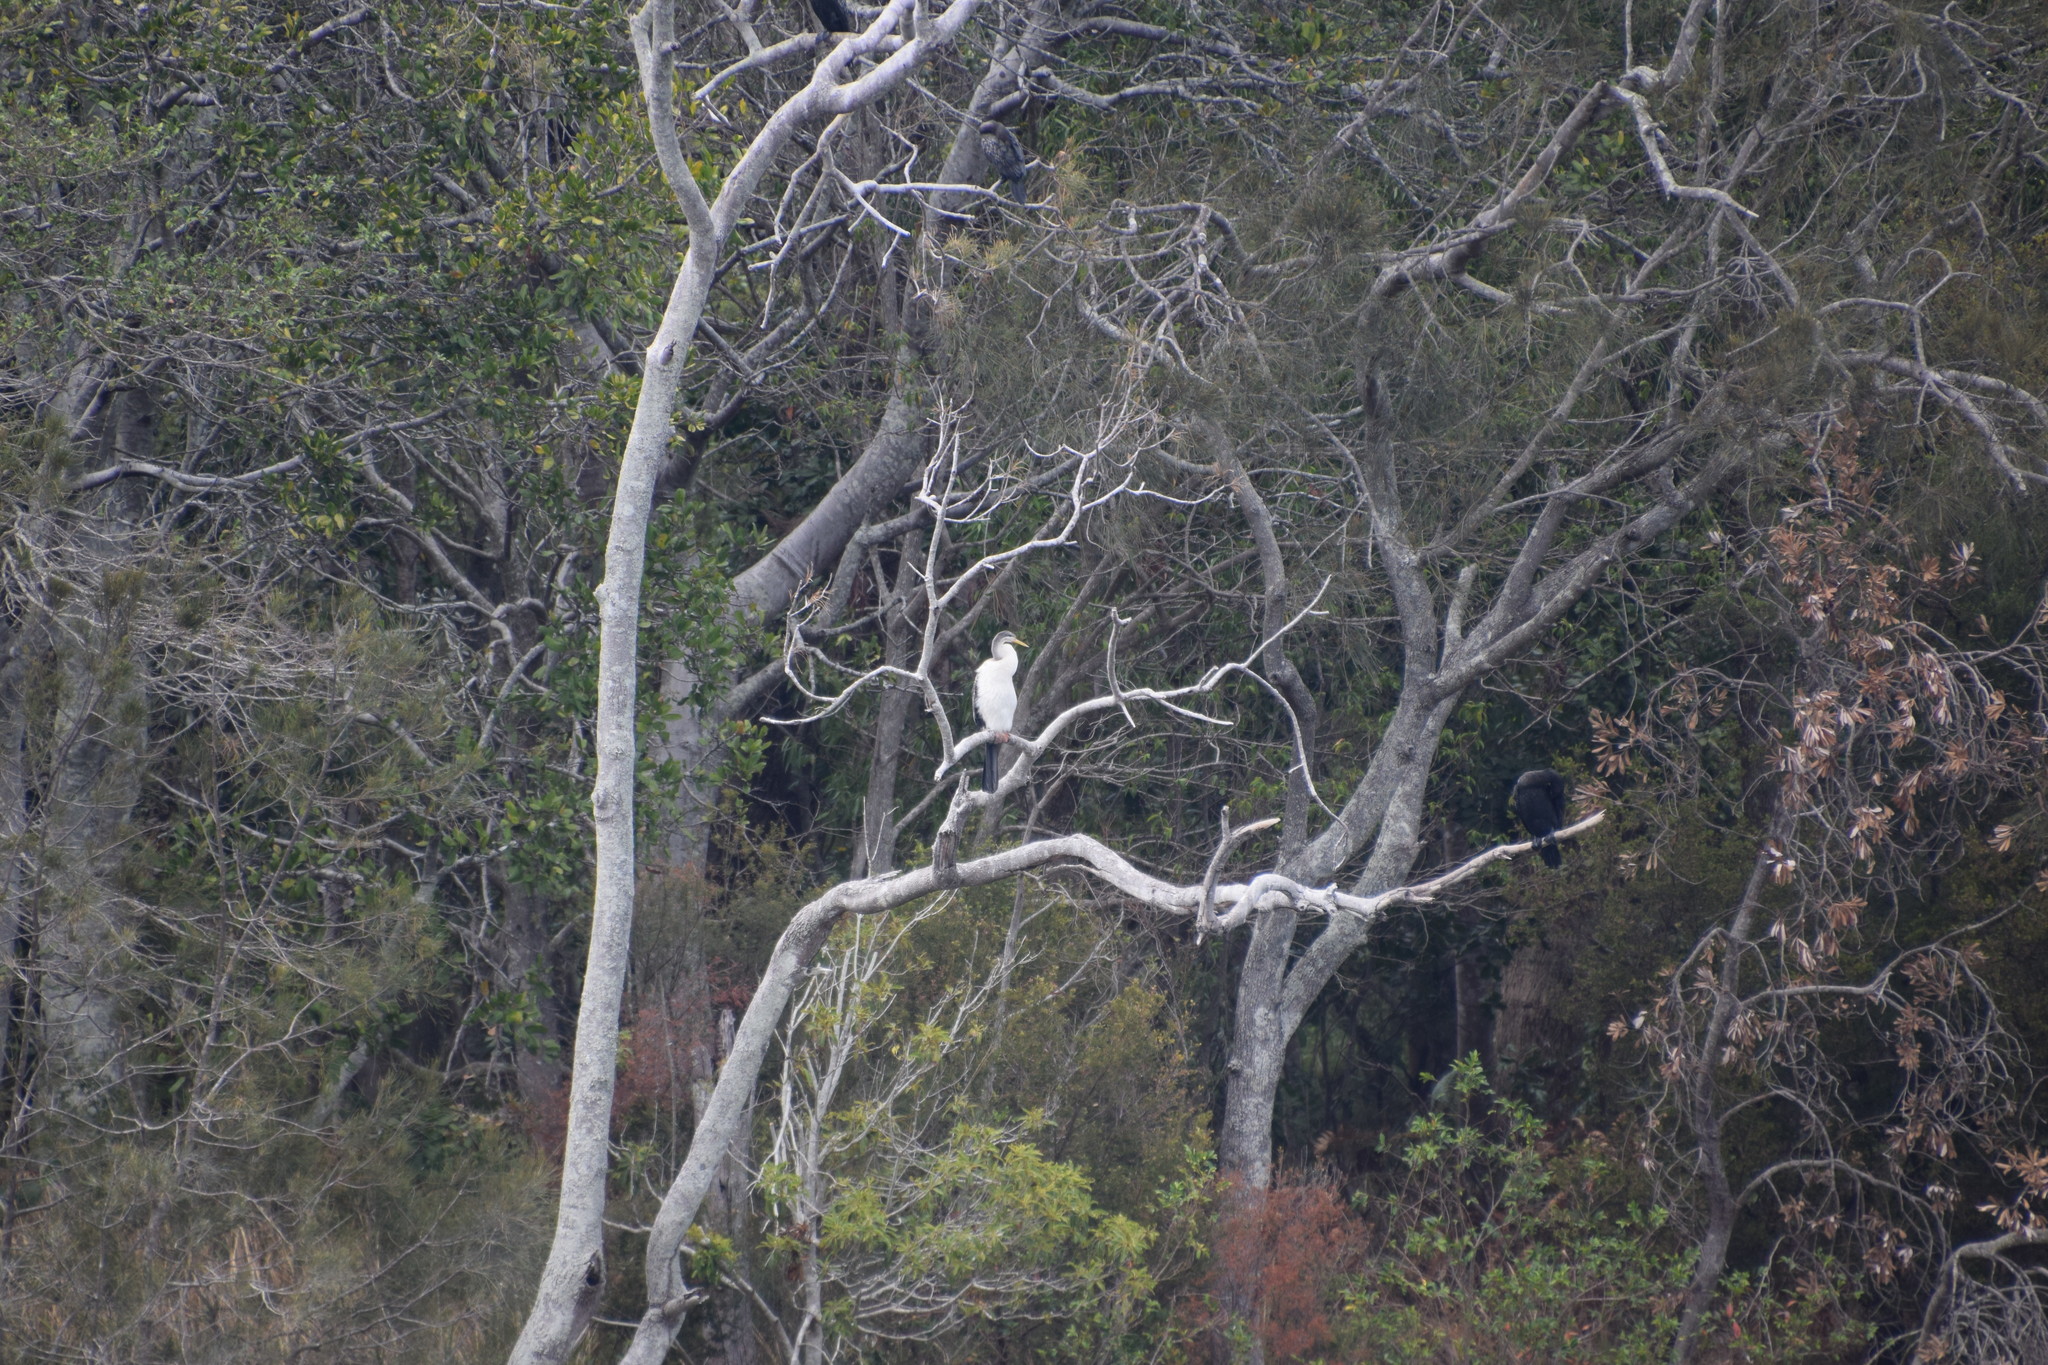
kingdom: Animalia
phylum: Chordata
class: Aves
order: Suliformes
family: Anhingidae
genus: Anhinga
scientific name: Anhinga novaehollandiae
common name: Australasian darter
